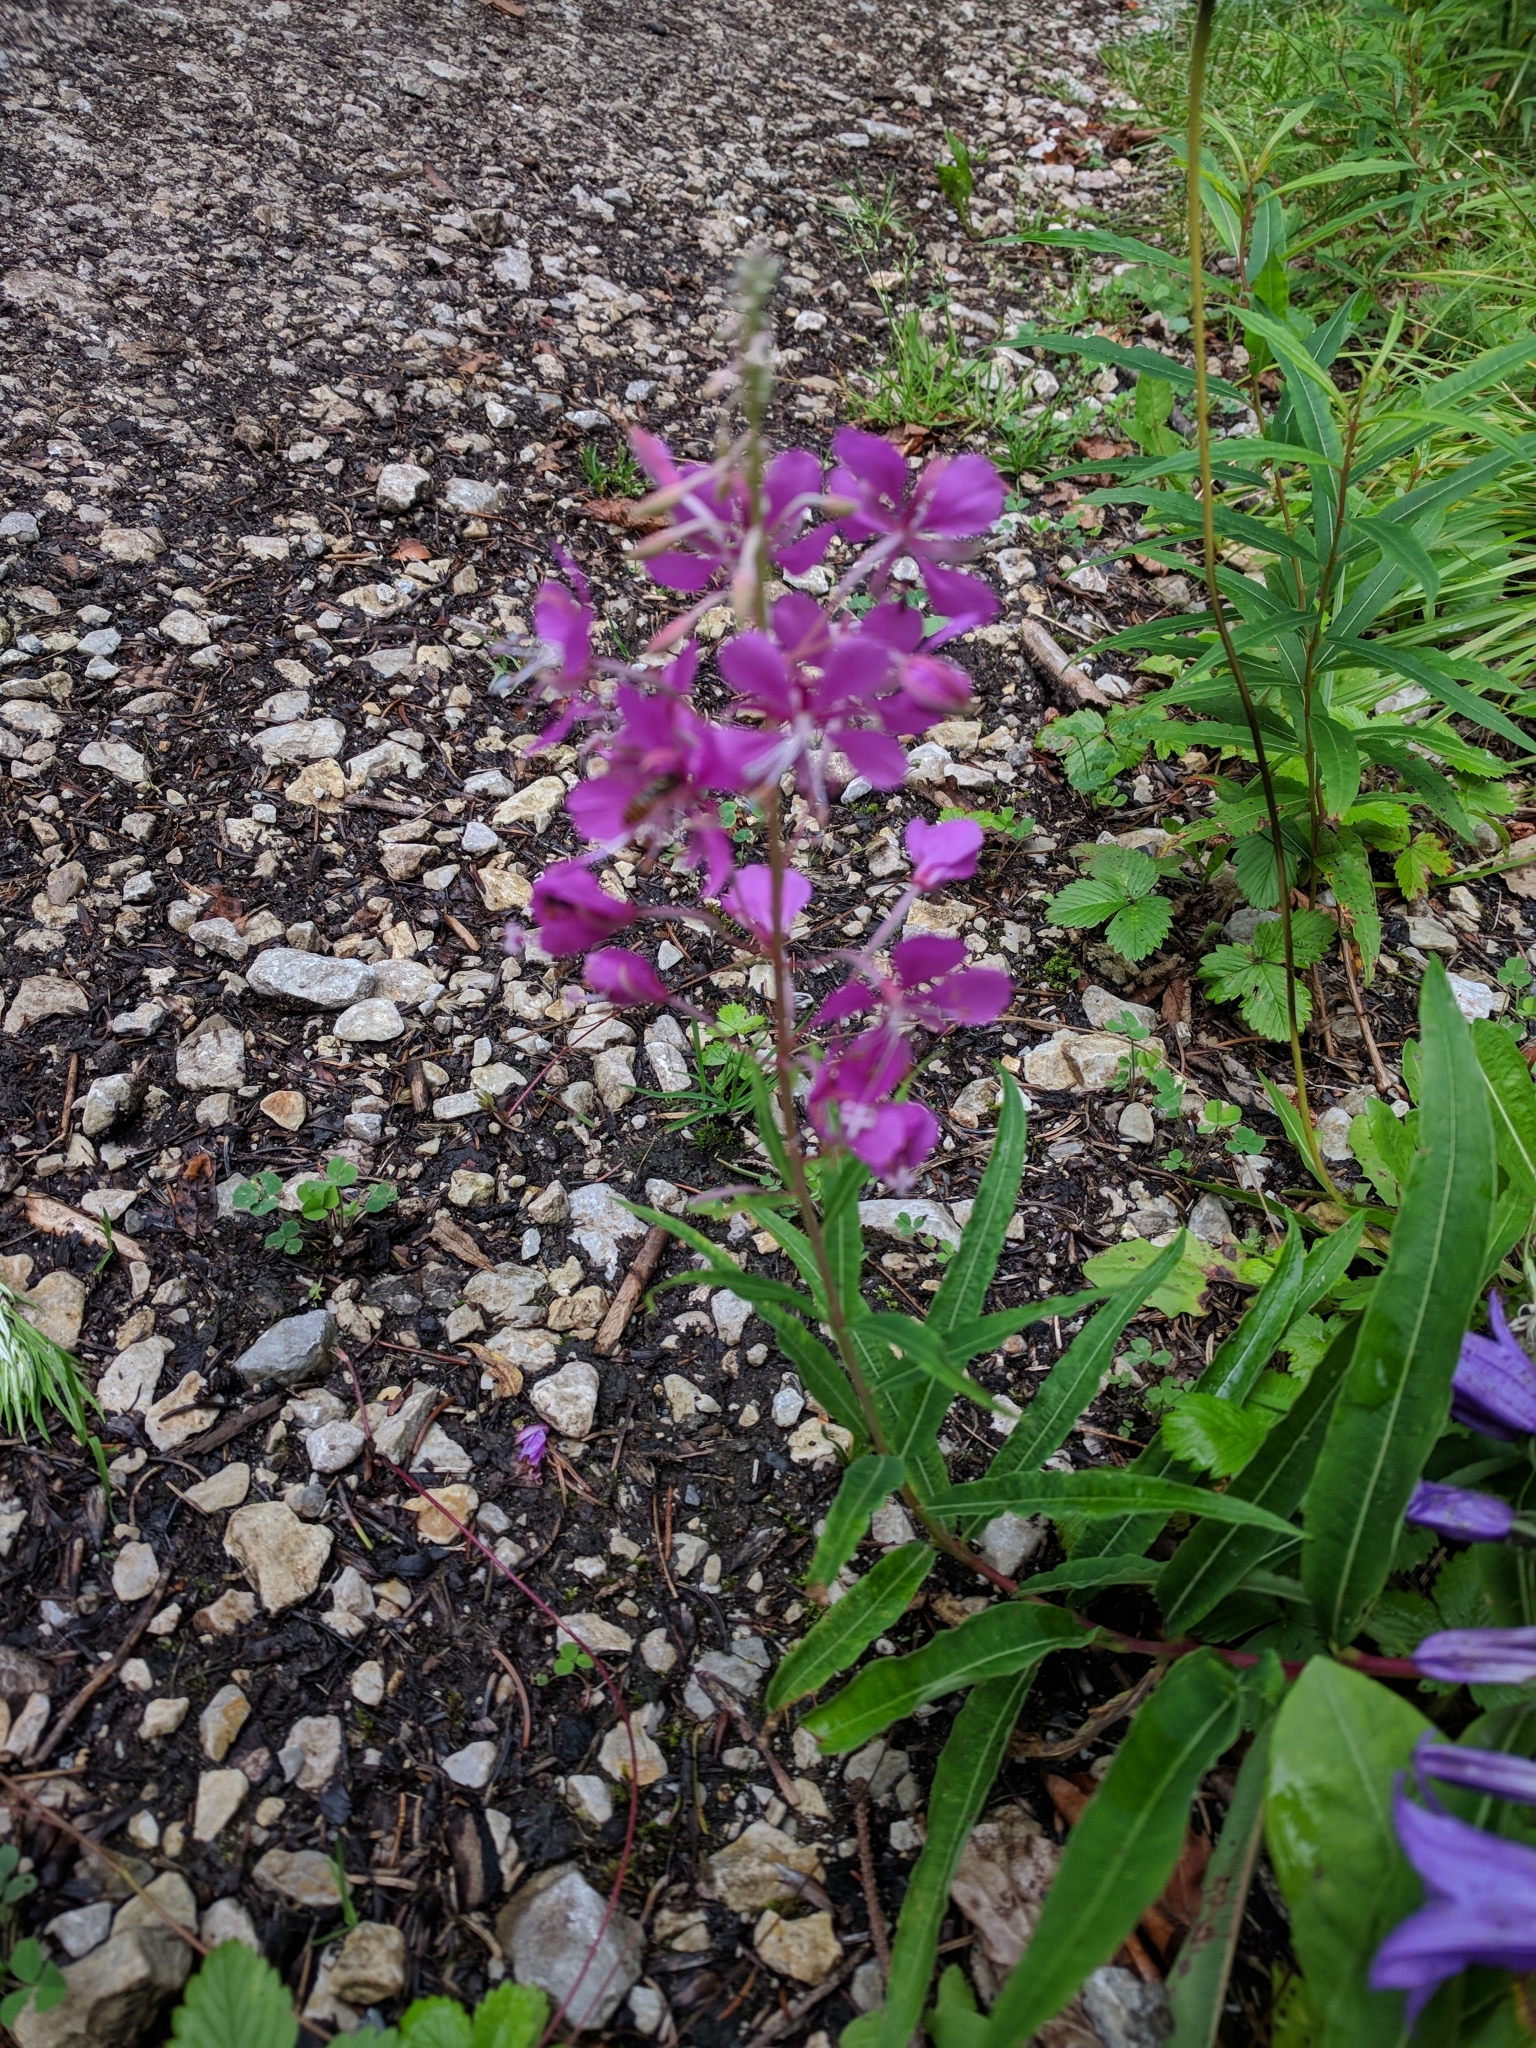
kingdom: Plantae
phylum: Tracheophyta
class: Magnoliopsida
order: Myrtales
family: Onagraceae
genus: Chamaenerion
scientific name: Chamaenerion angustifolium
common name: Fireweed
